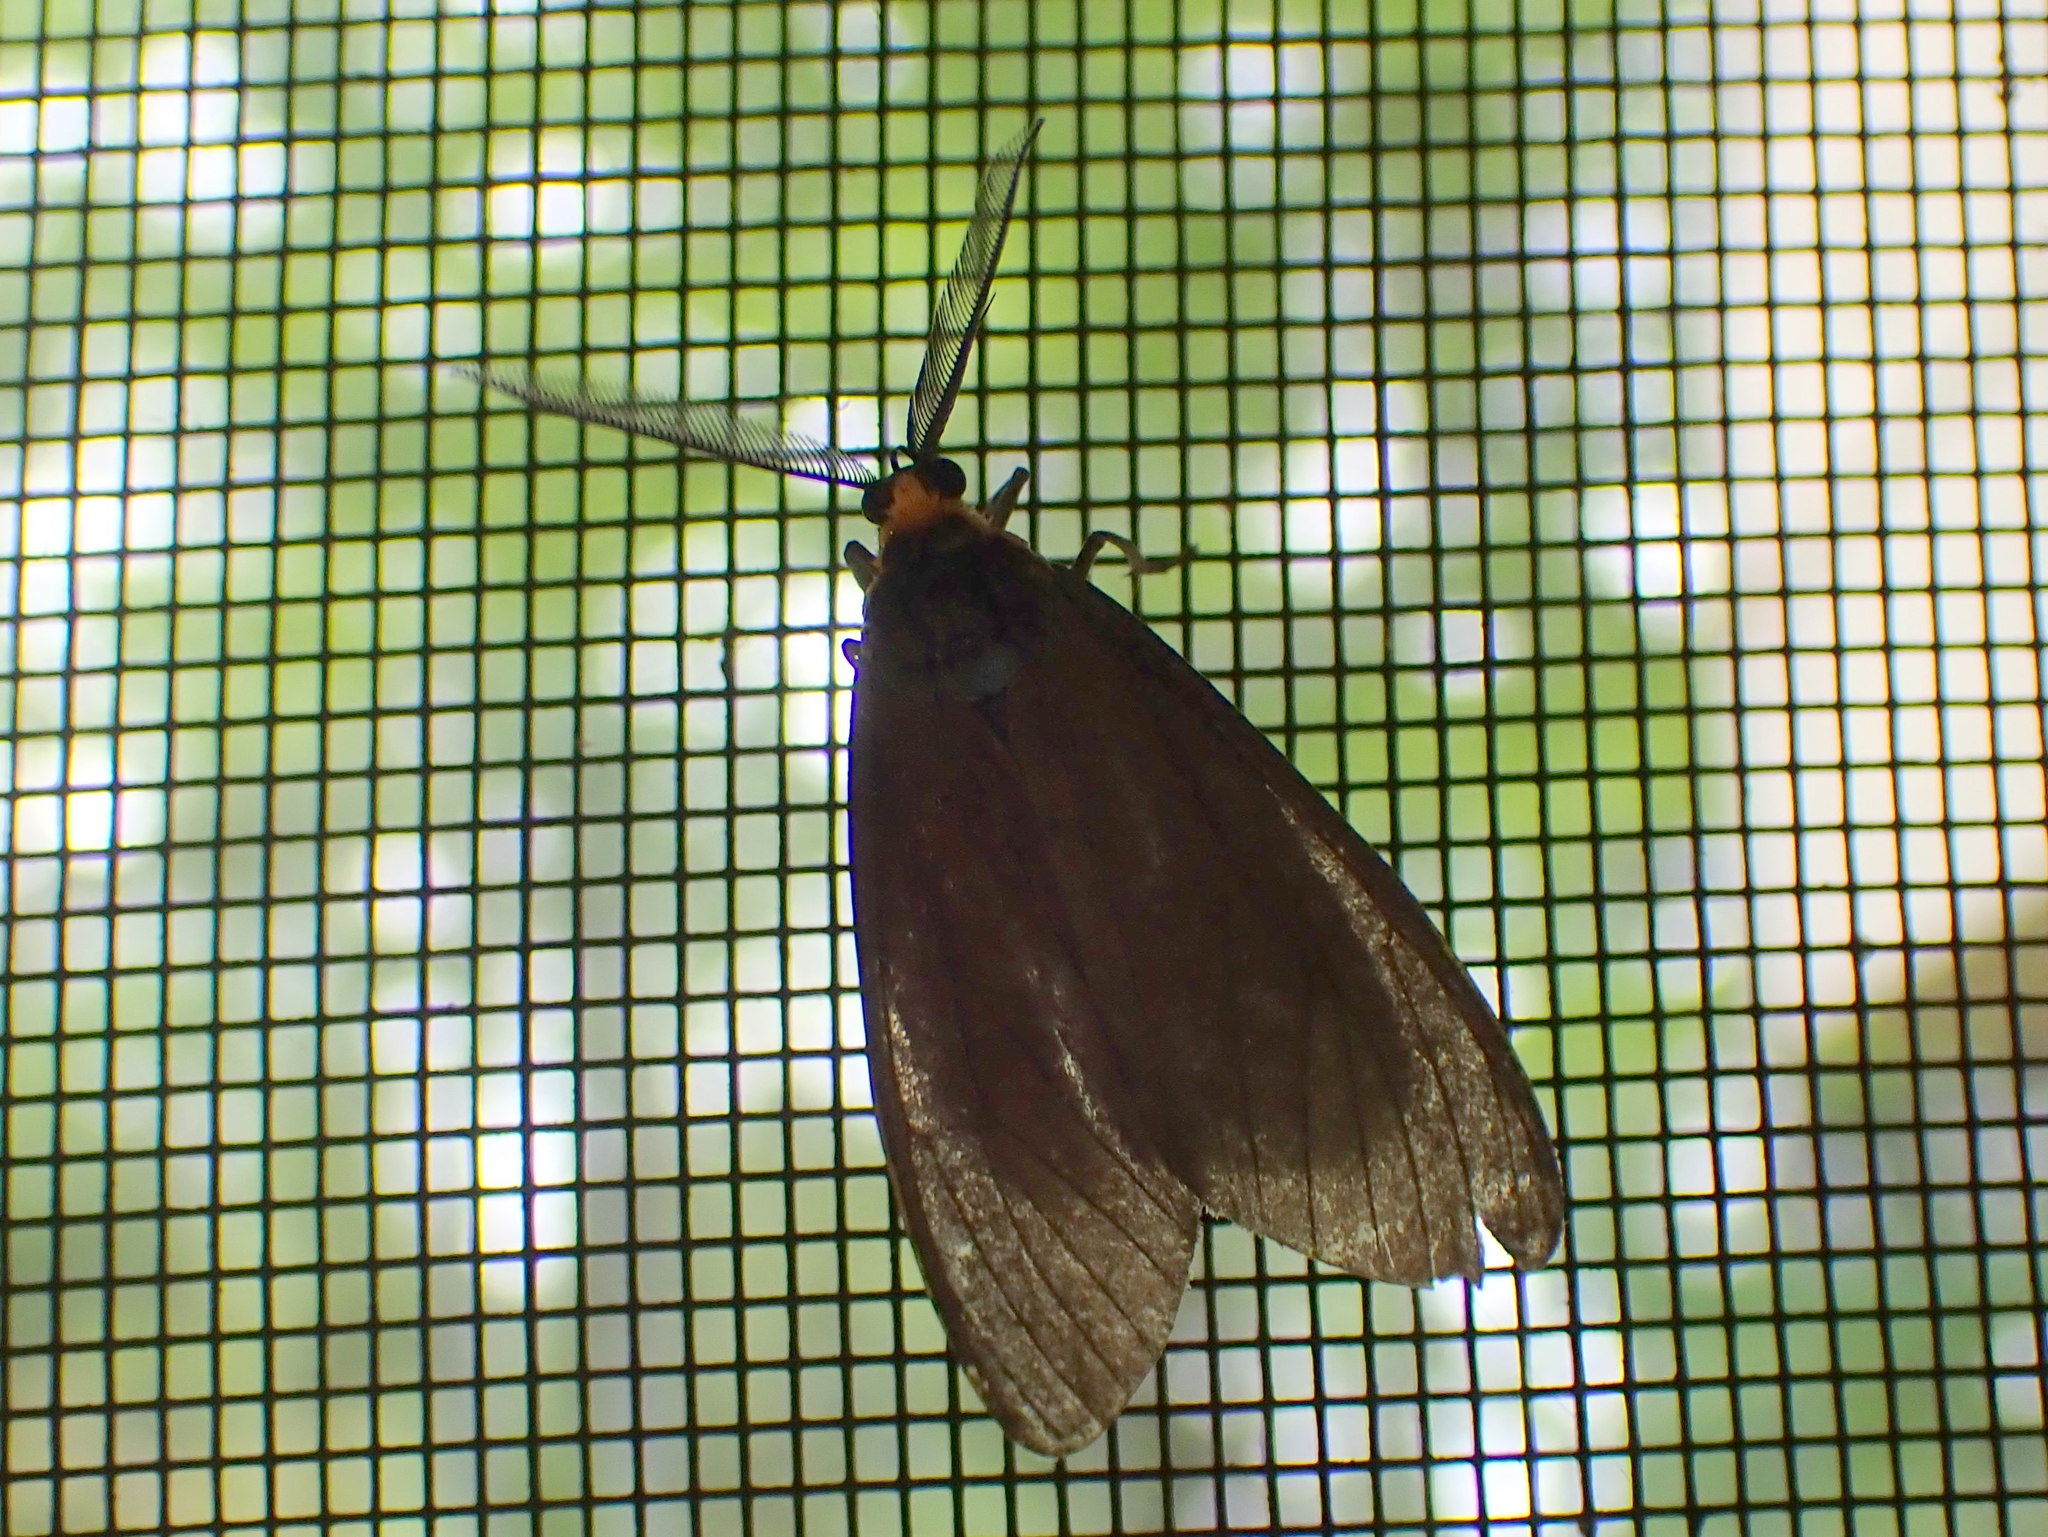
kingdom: Animalia
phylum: Arthropoda
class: Insecta
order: Lepidoptera
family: Erebidae
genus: Ctenucha
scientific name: Ctenucha virginica
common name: Virginia ctenucha moth
